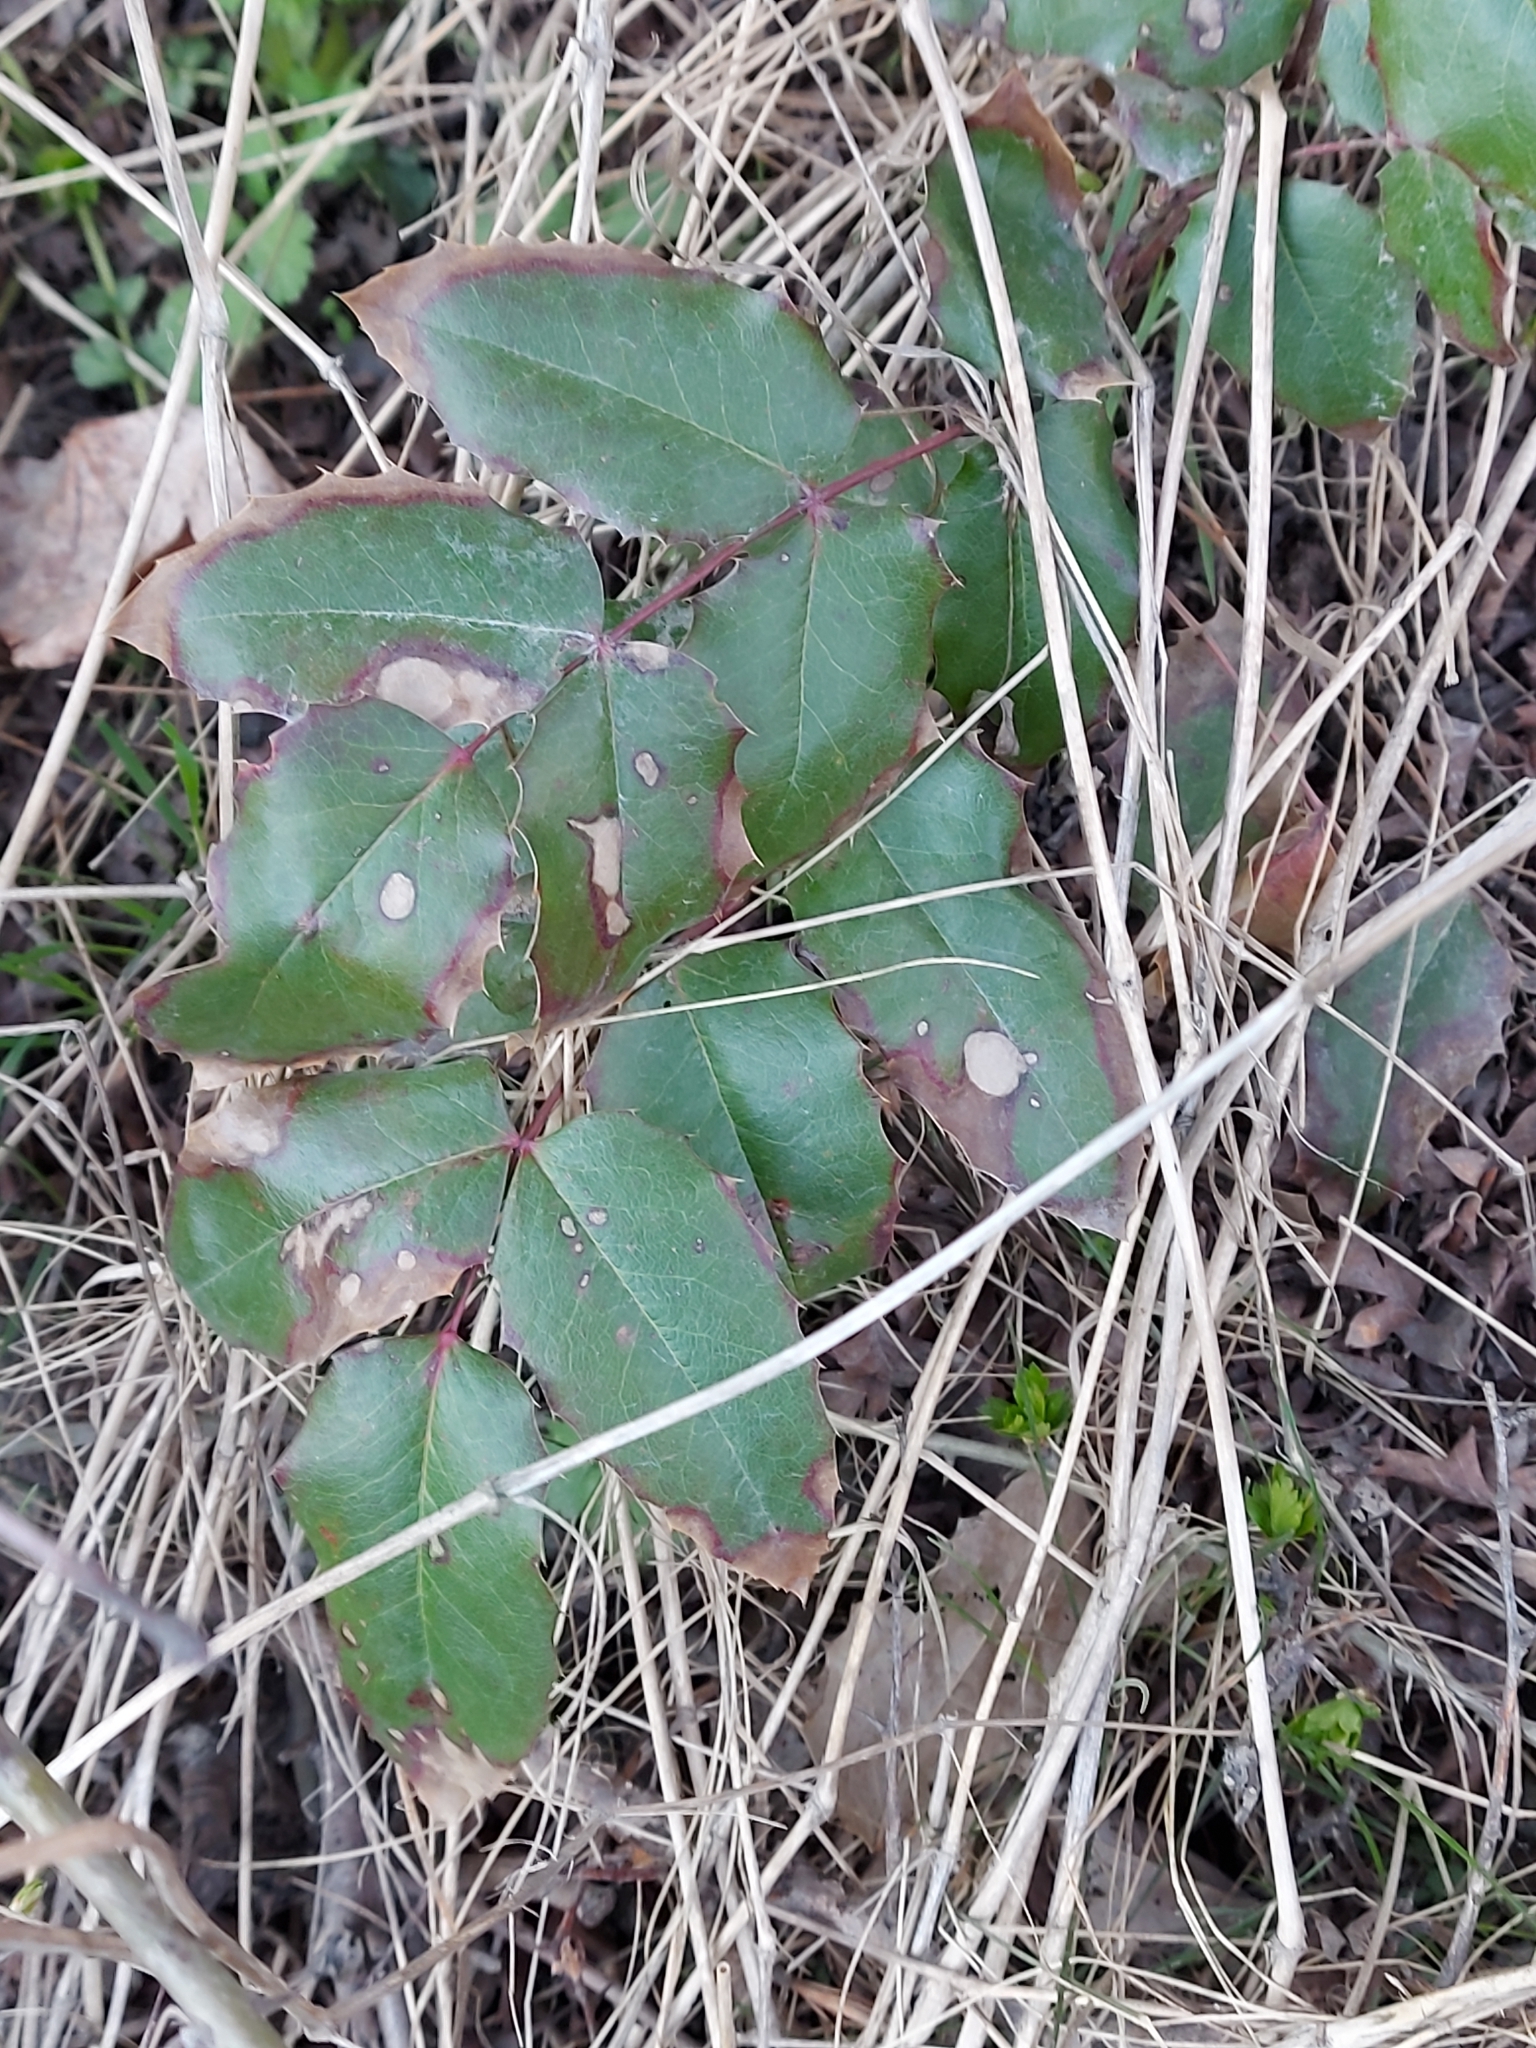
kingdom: Plantae
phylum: Tracheophyta
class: Magnoliopsida
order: Ranunculales
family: Berberidaceae
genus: Mahonia
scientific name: Mahonia aquifolium
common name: Oregon-grape
